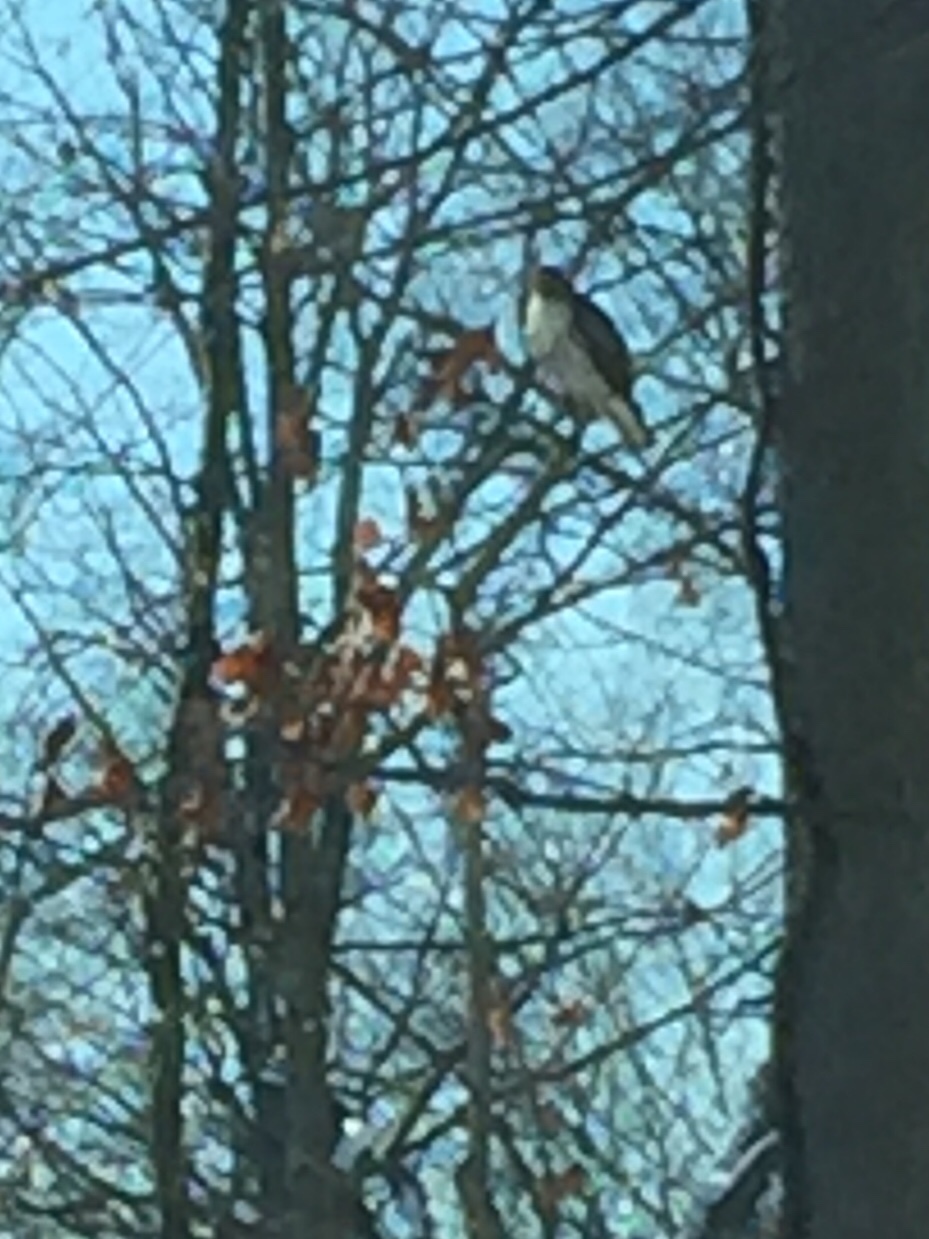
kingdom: Animalia
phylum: Chordata
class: Aves
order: Accipitriformes
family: Accipitridae
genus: Buteo
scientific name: Buteo jamaicensis
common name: Red-tailed hawk
